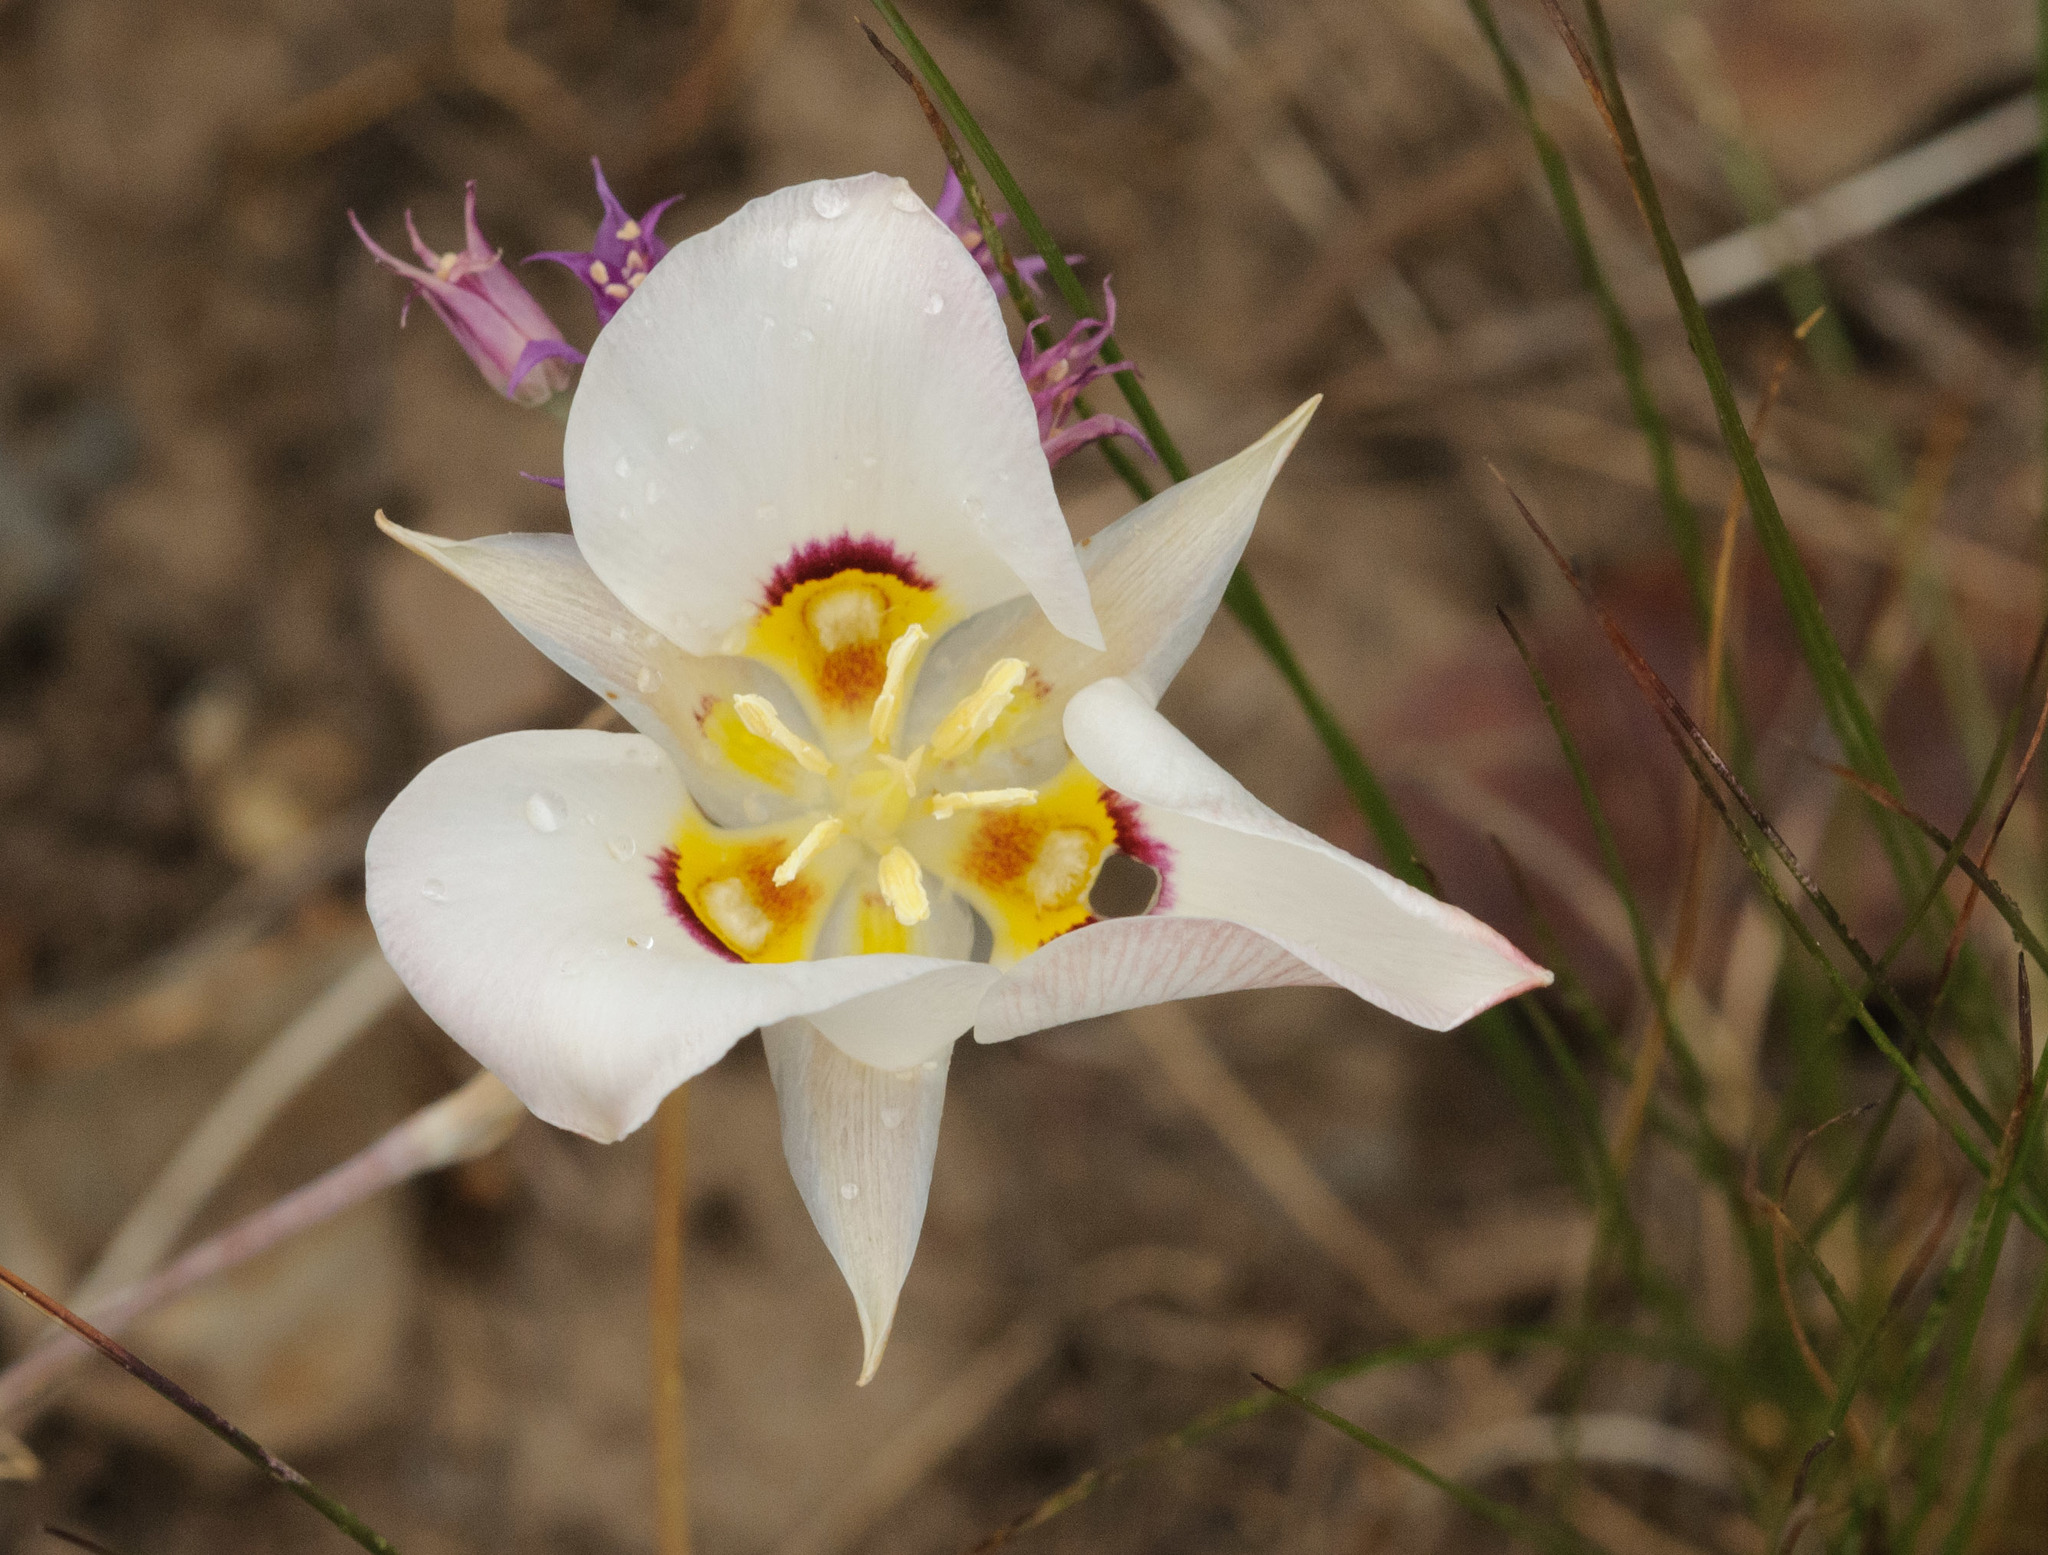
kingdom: Plantae
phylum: Tracheophyta
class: Liliopsida
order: Liliales
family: Liliaceae
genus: Calochortus
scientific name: Calochortus nuttallii
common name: Sego-lily
